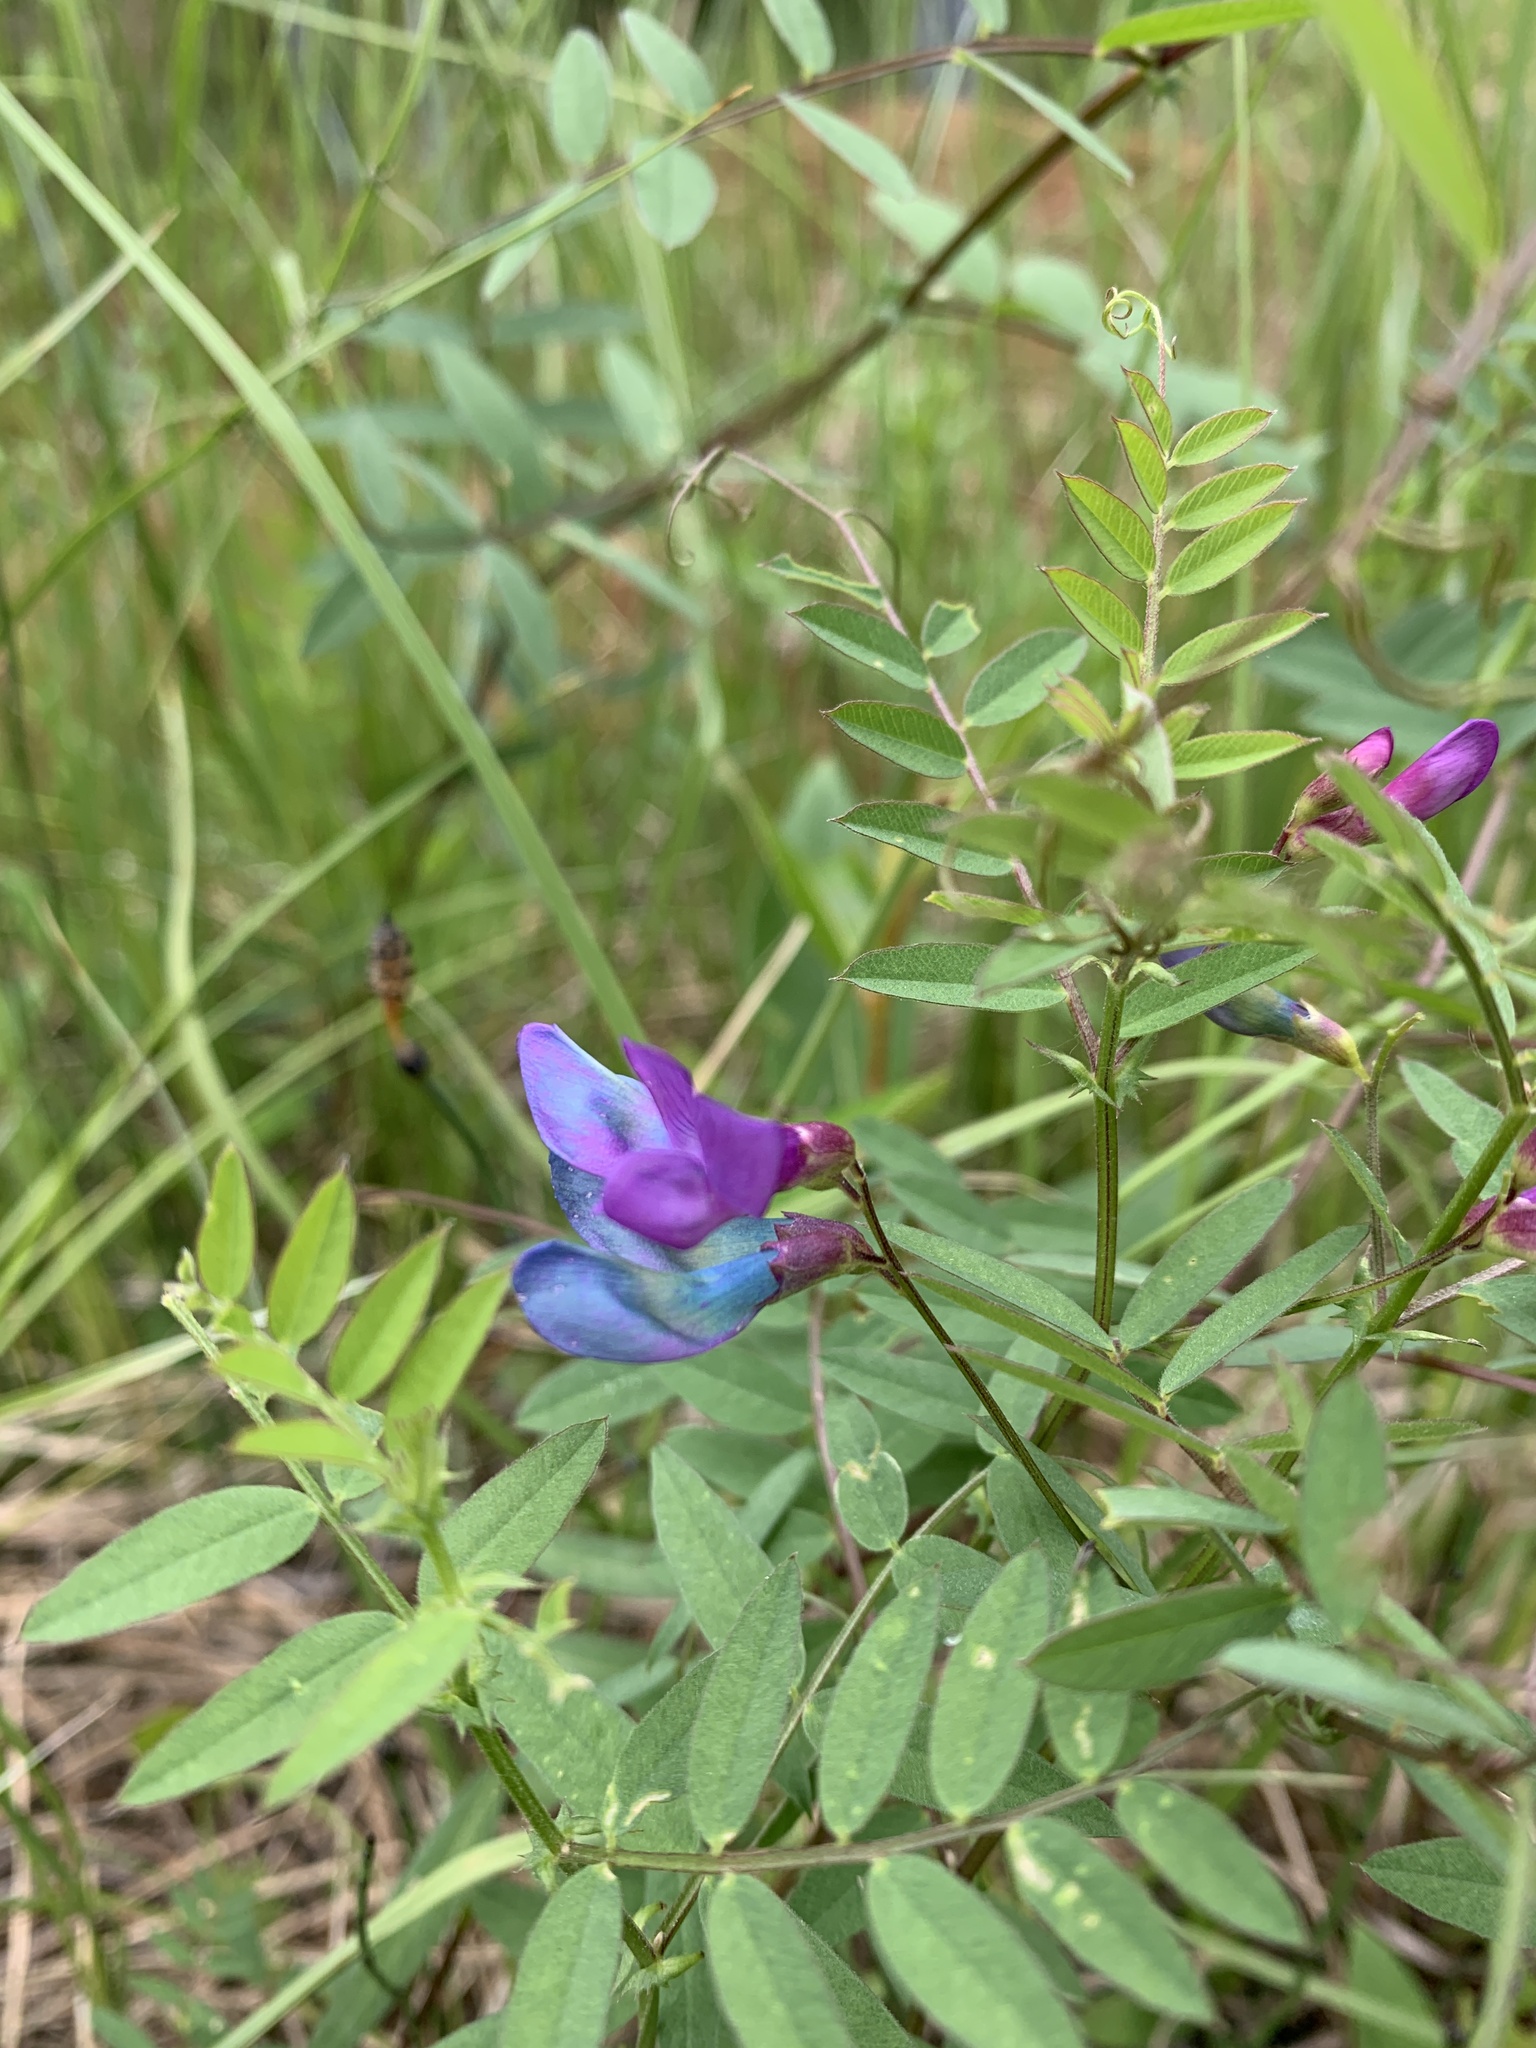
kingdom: Plantae
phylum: Tracheophyta
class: Magnoliopsida
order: Fabales
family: Fabaceae
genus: Vicia
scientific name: Vicia americana
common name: American vetch
